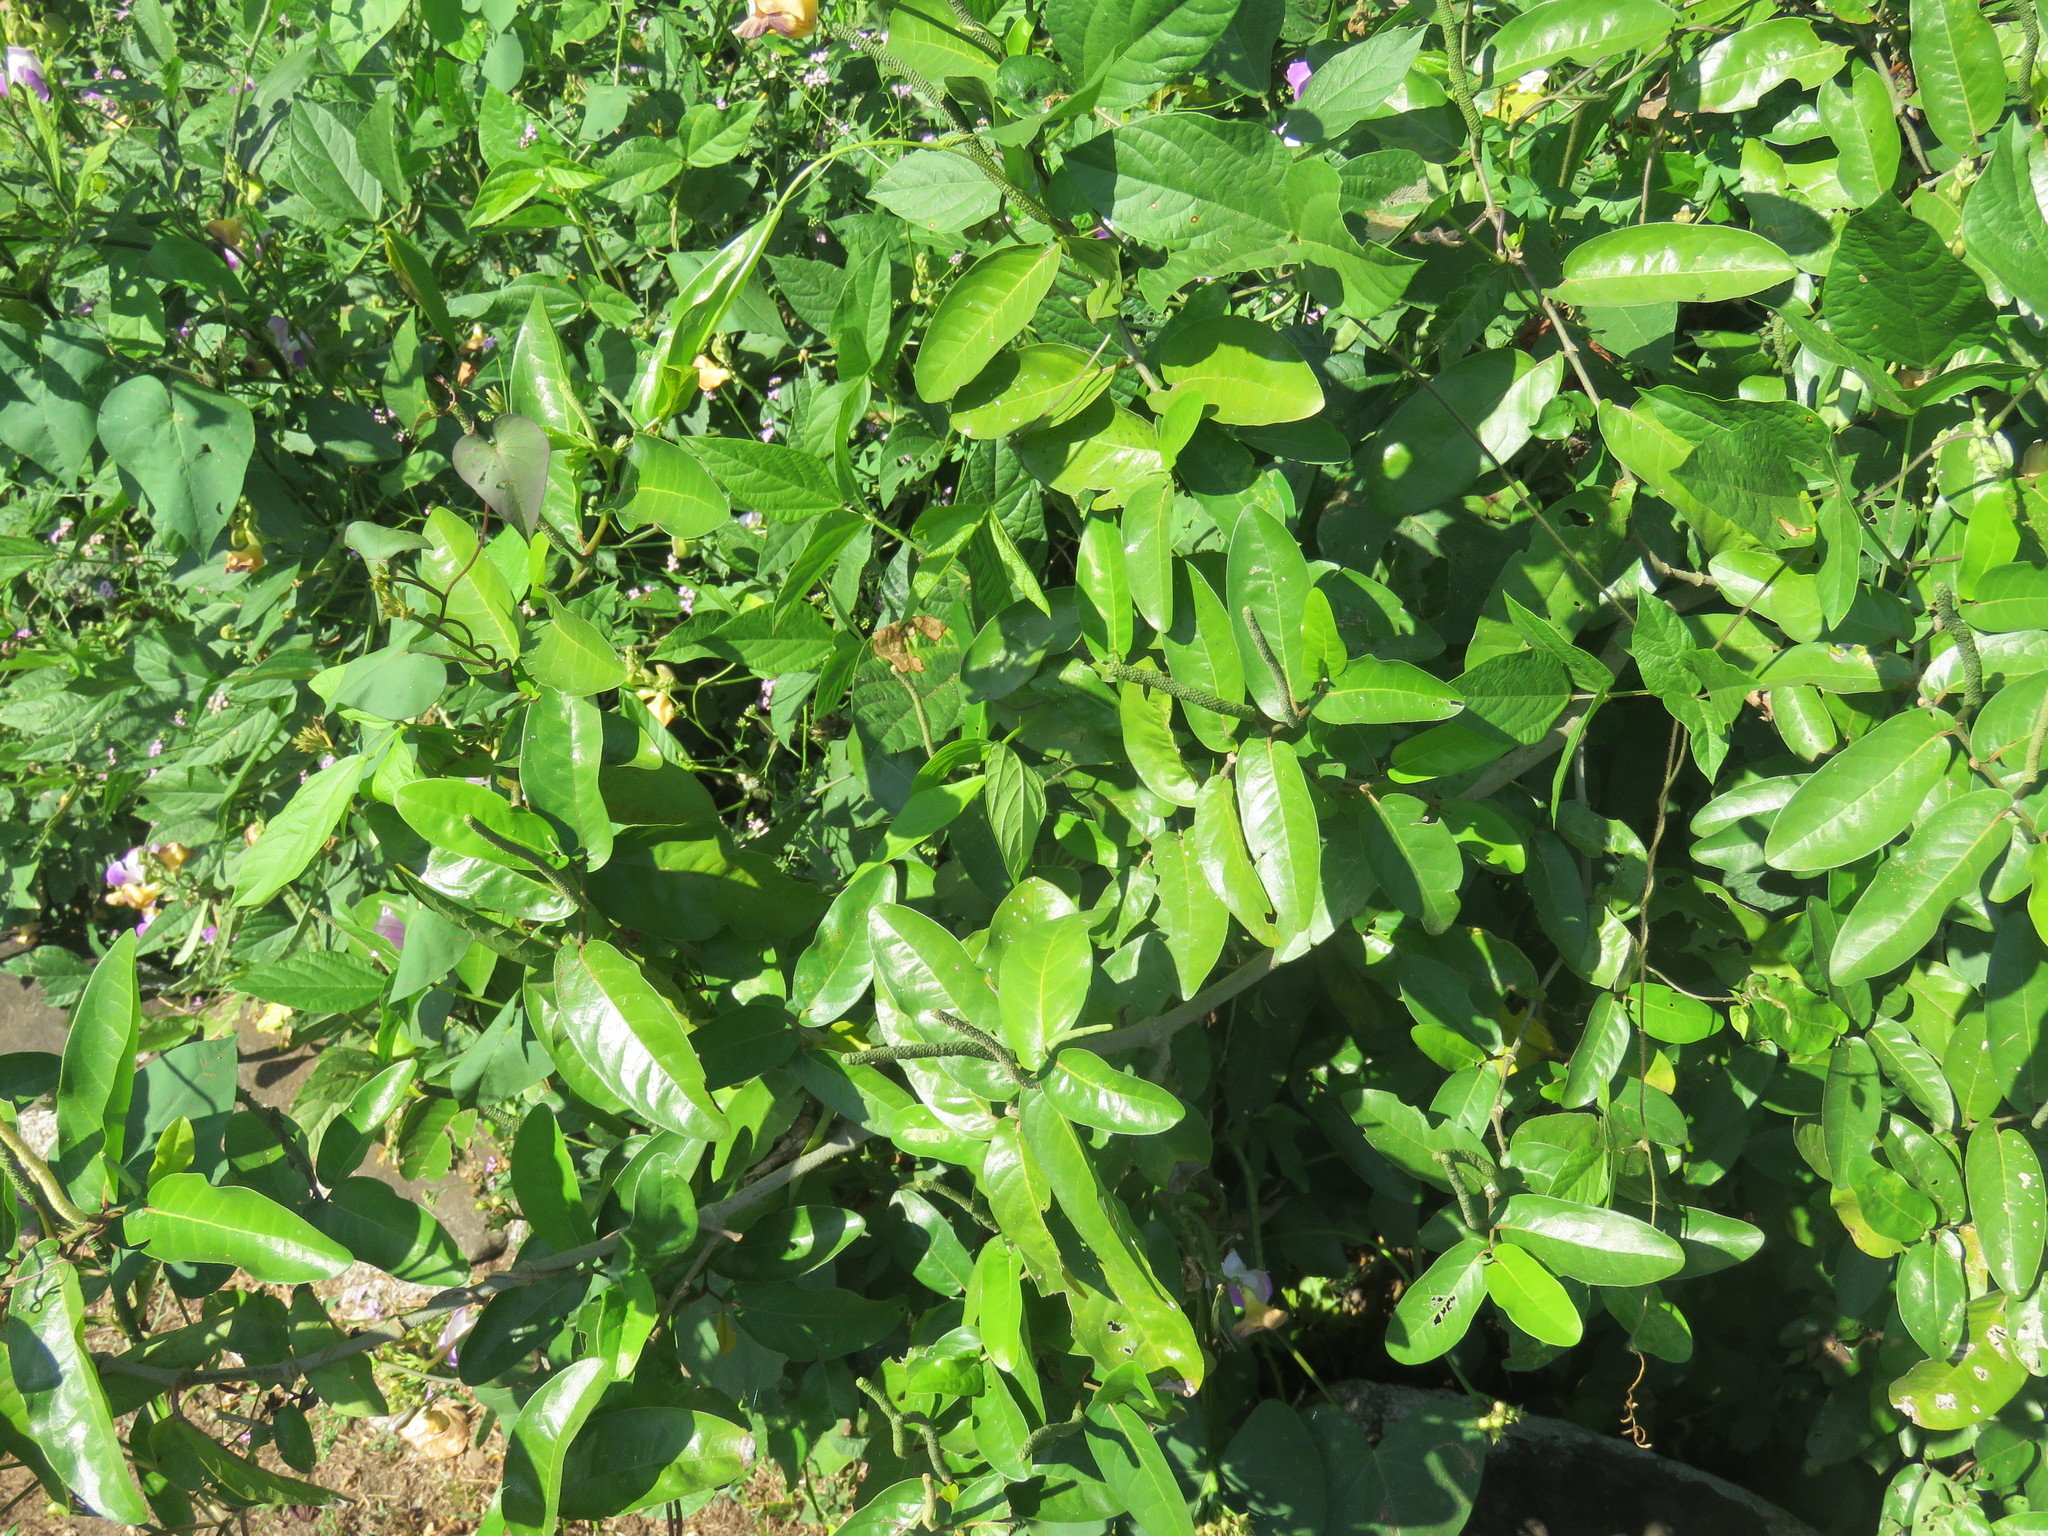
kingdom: Plantae
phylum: Tracheophyta
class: Magnoliopsida
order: Piperales
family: Piperaceae
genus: Piper
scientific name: Piper tuberculatum
